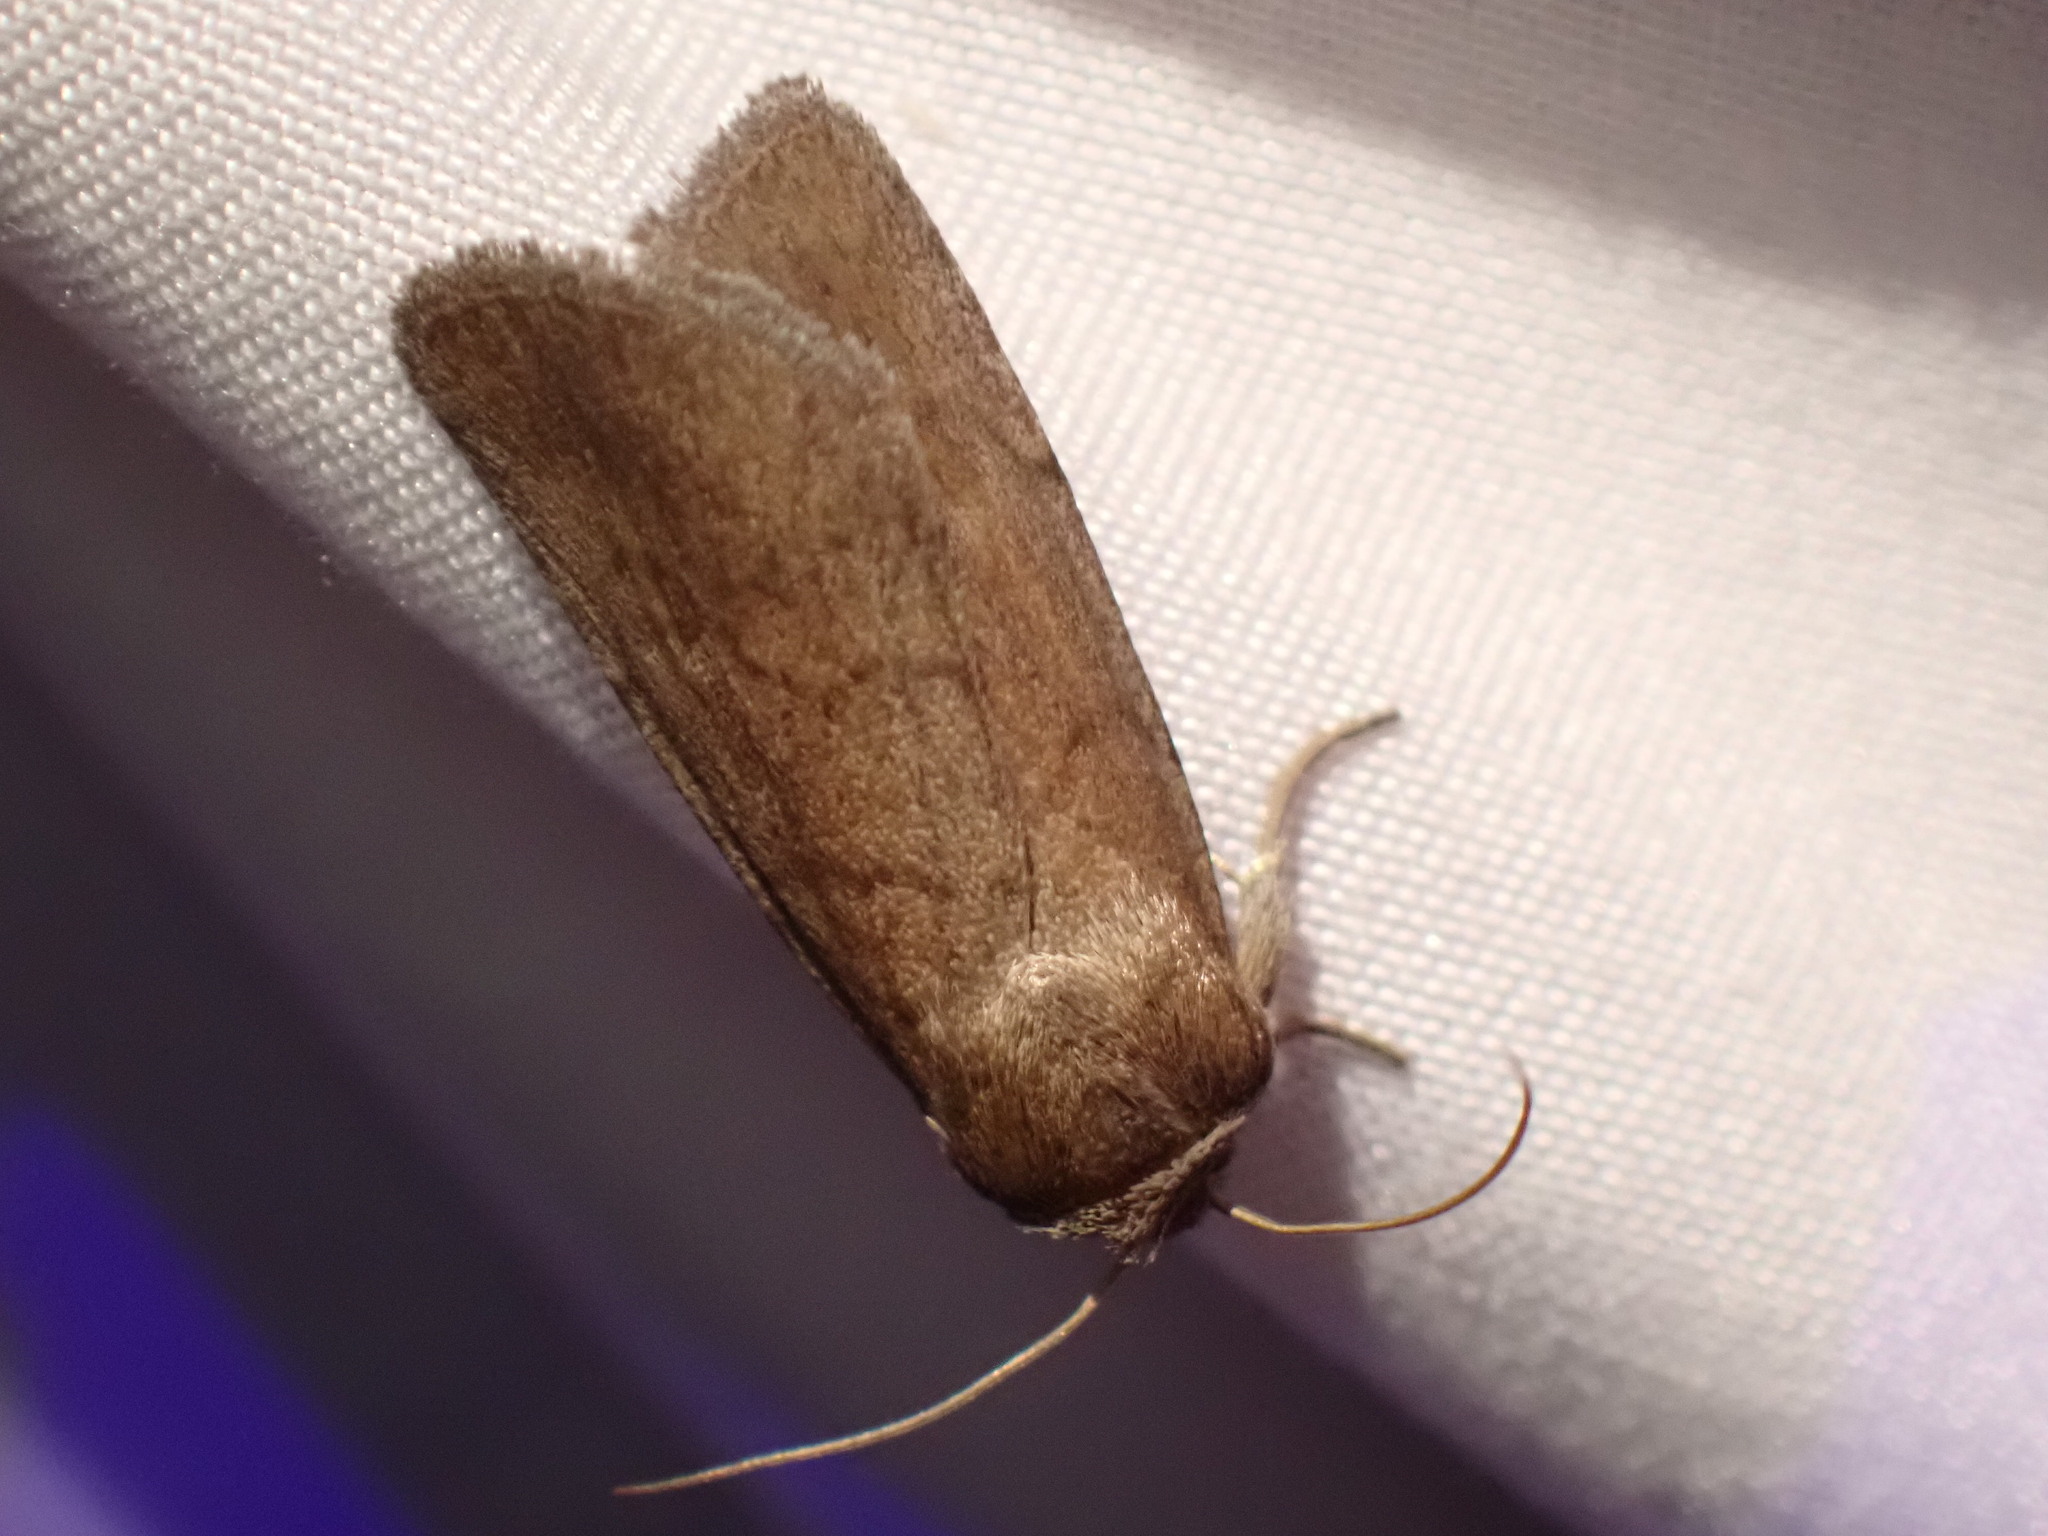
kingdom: Animalia
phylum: Arthropoda
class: Insecta
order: Lepidoptera
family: Noctuidae
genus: Sympistis
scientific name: Sympistis stabilis
